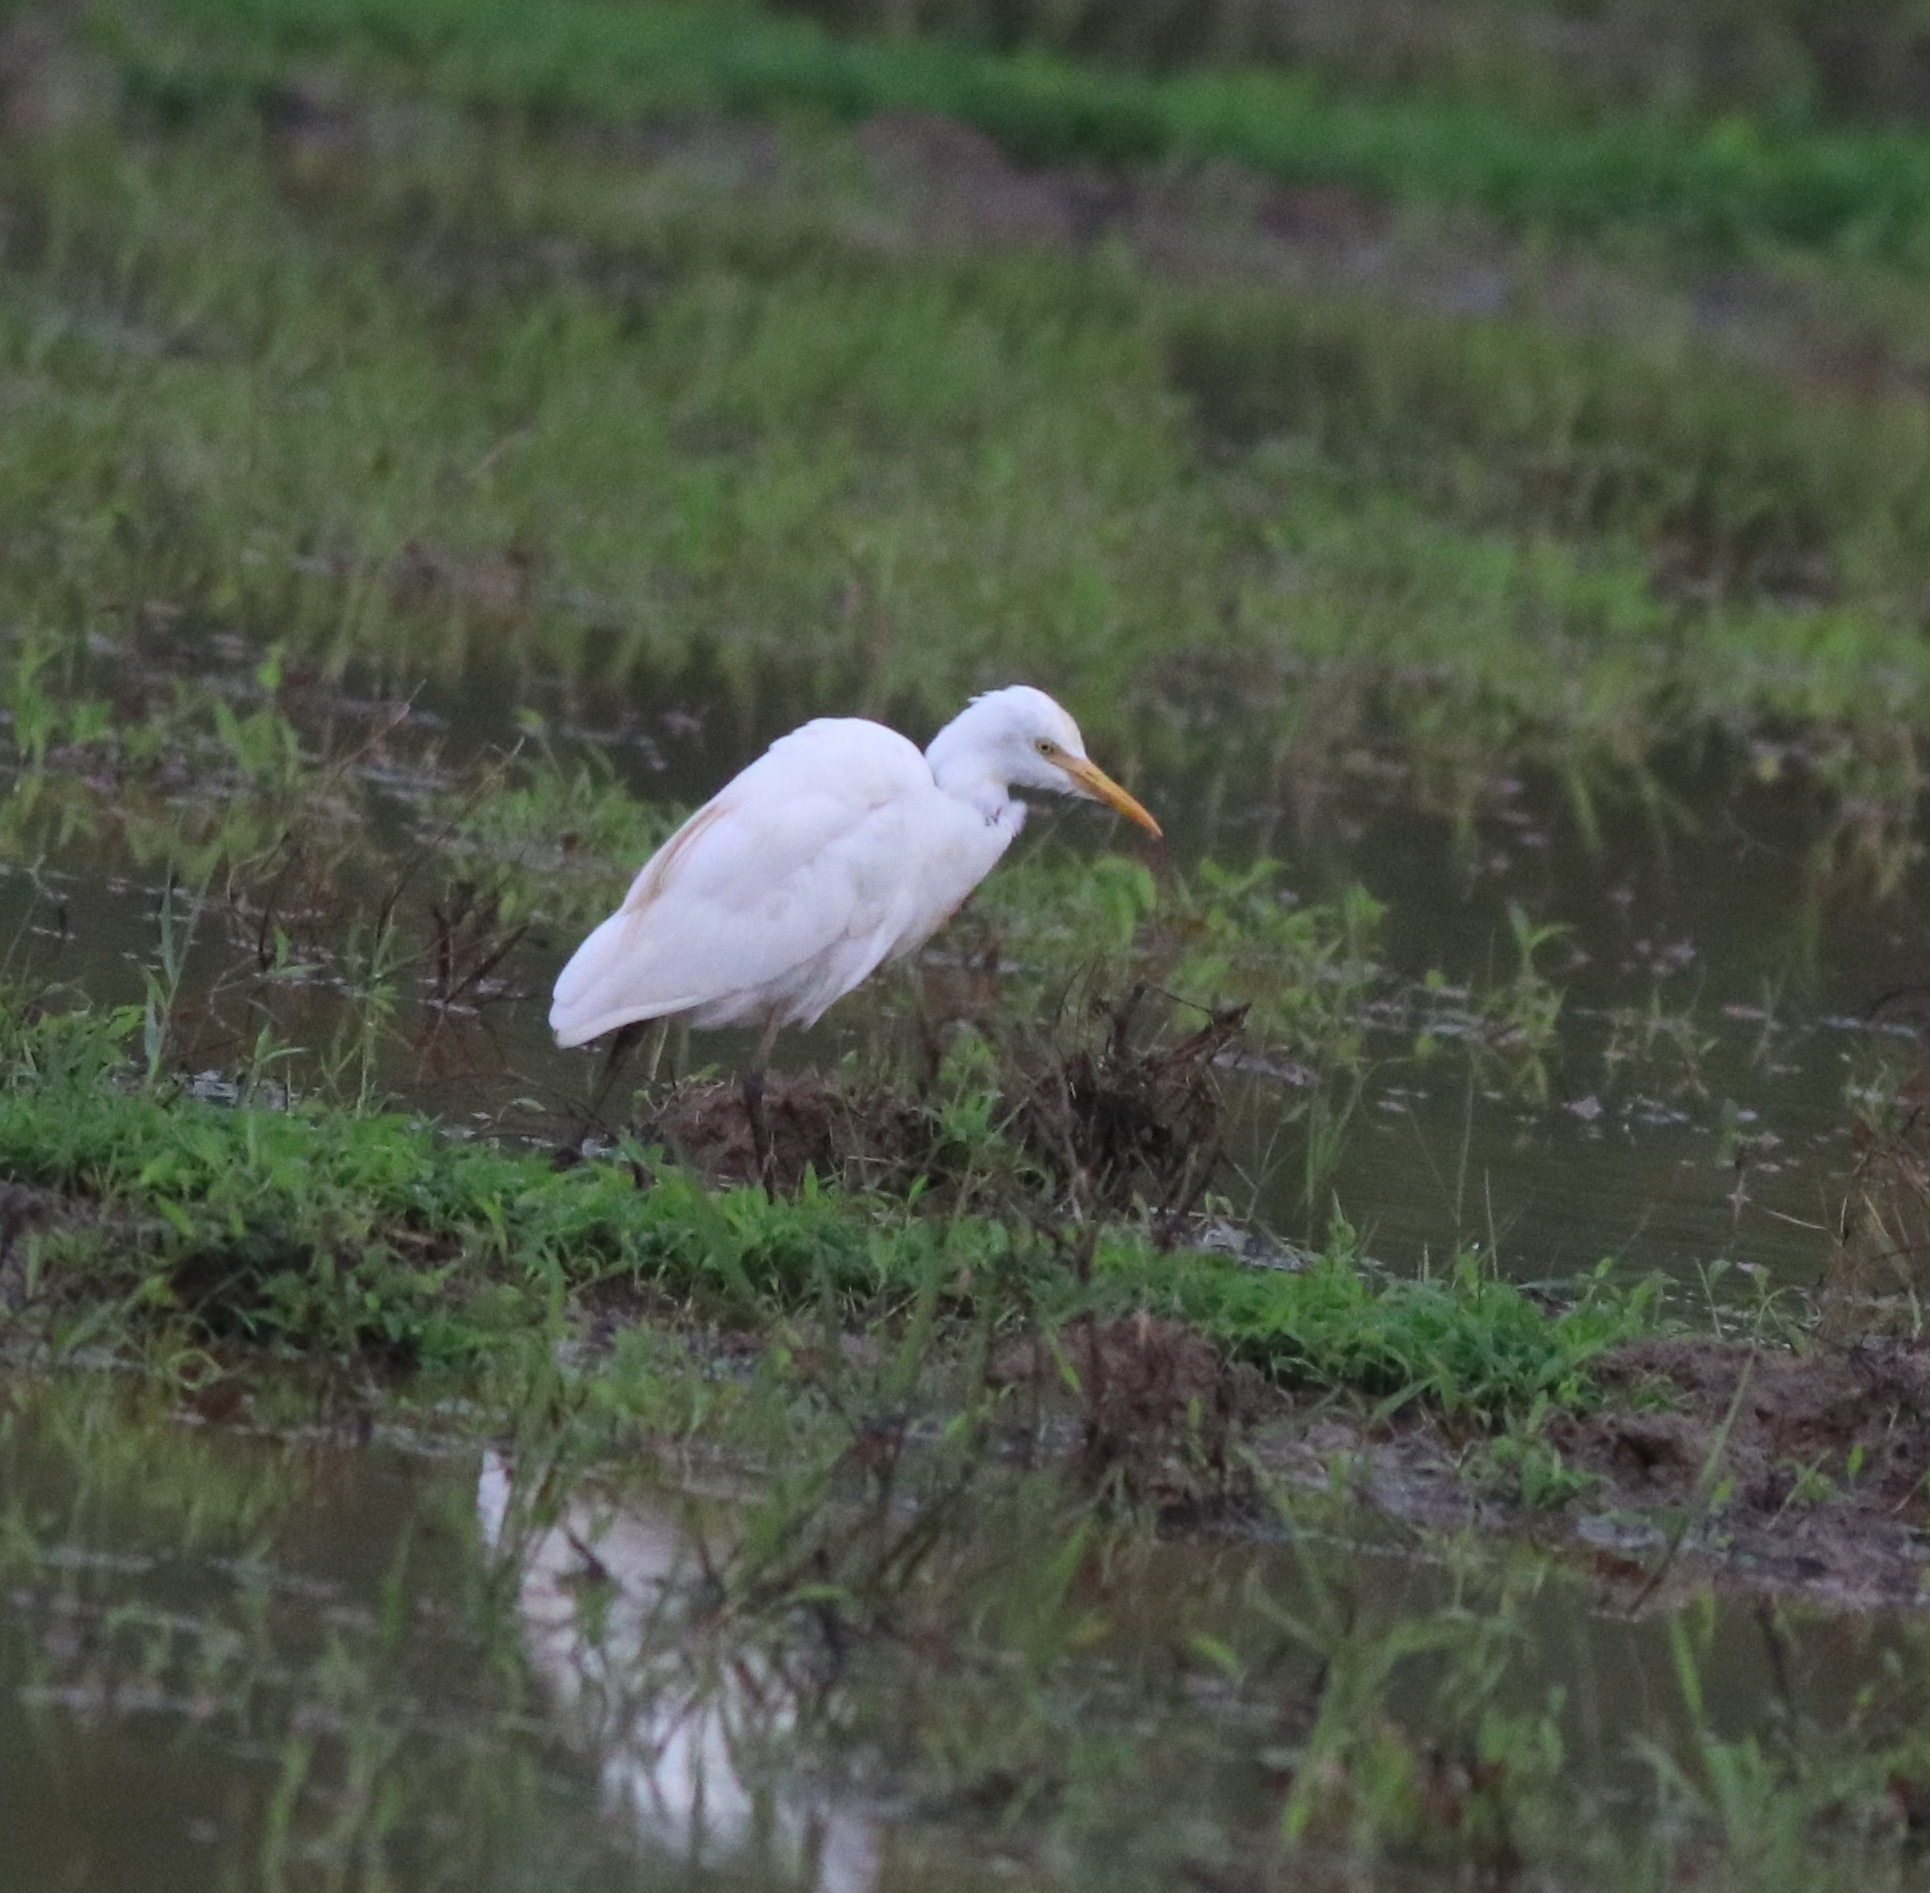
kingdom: Animalia
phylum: Chordata
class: Aves
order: Pelecaniformes
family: Ardeidae
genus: Bubulcus
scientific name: Bubulcus coromandus
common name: Eastern cattle egret
